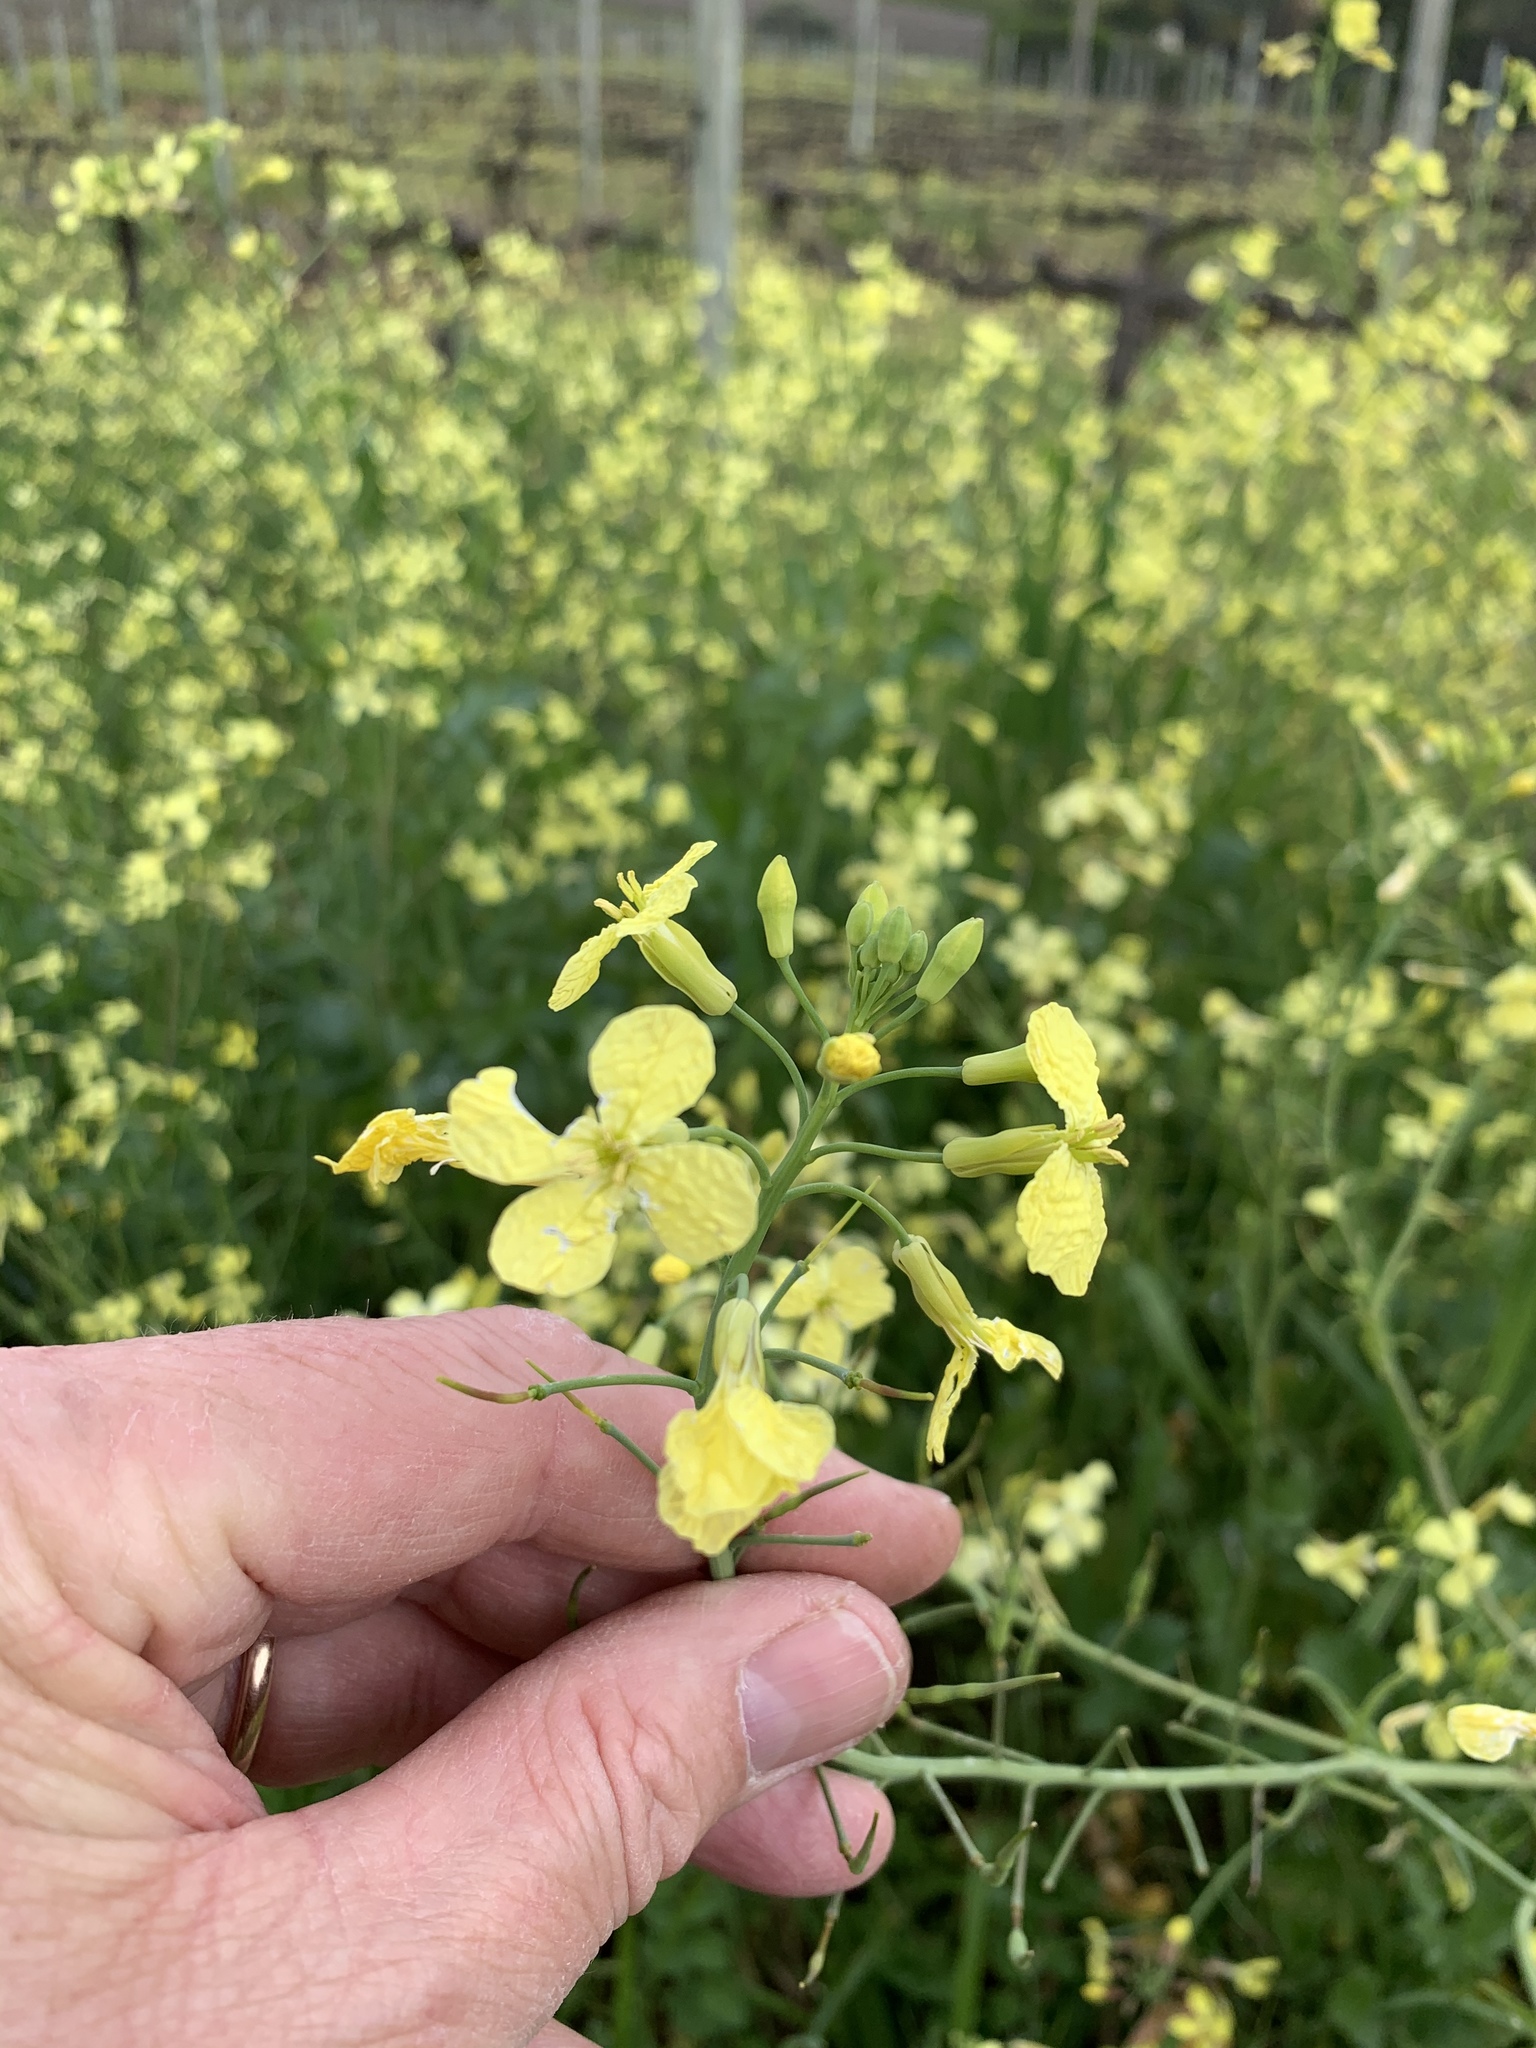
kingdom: Plantae
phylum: Tracheophyta
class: Magnoliopsida
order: Brassicales
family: Brassicaceae
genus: Raphanus
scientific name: Raphanus raphanistrum
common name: Wild radish
